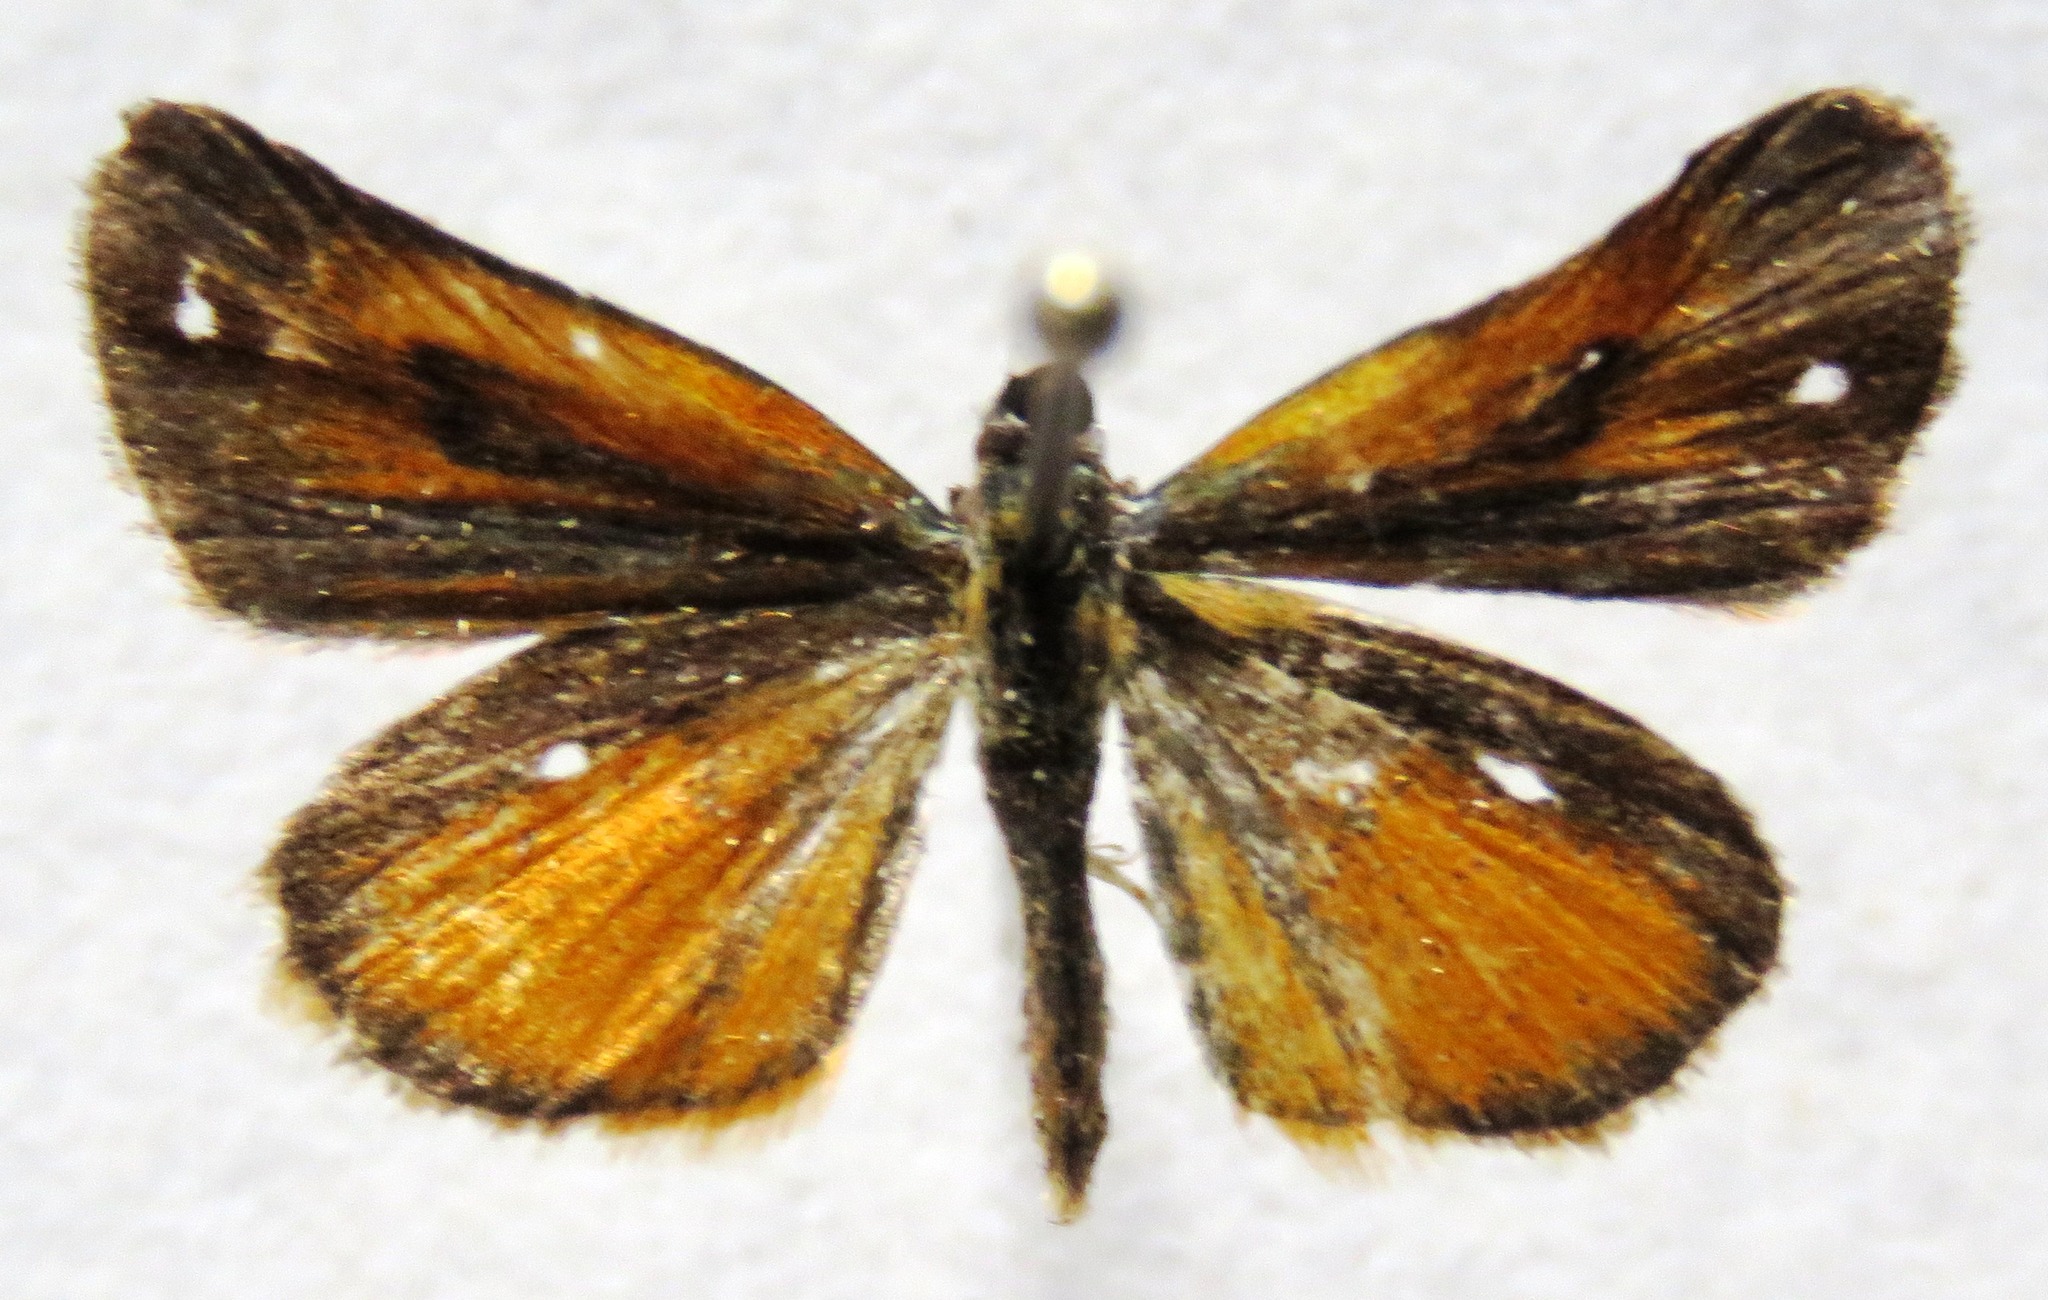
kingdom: Animalia
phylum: Arthropoda
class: Insecta
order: Lepidoptera
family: Hesperiidae
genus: Ancyloxypha
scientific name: Ancyloxypha arene
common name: Tropical least skipper
